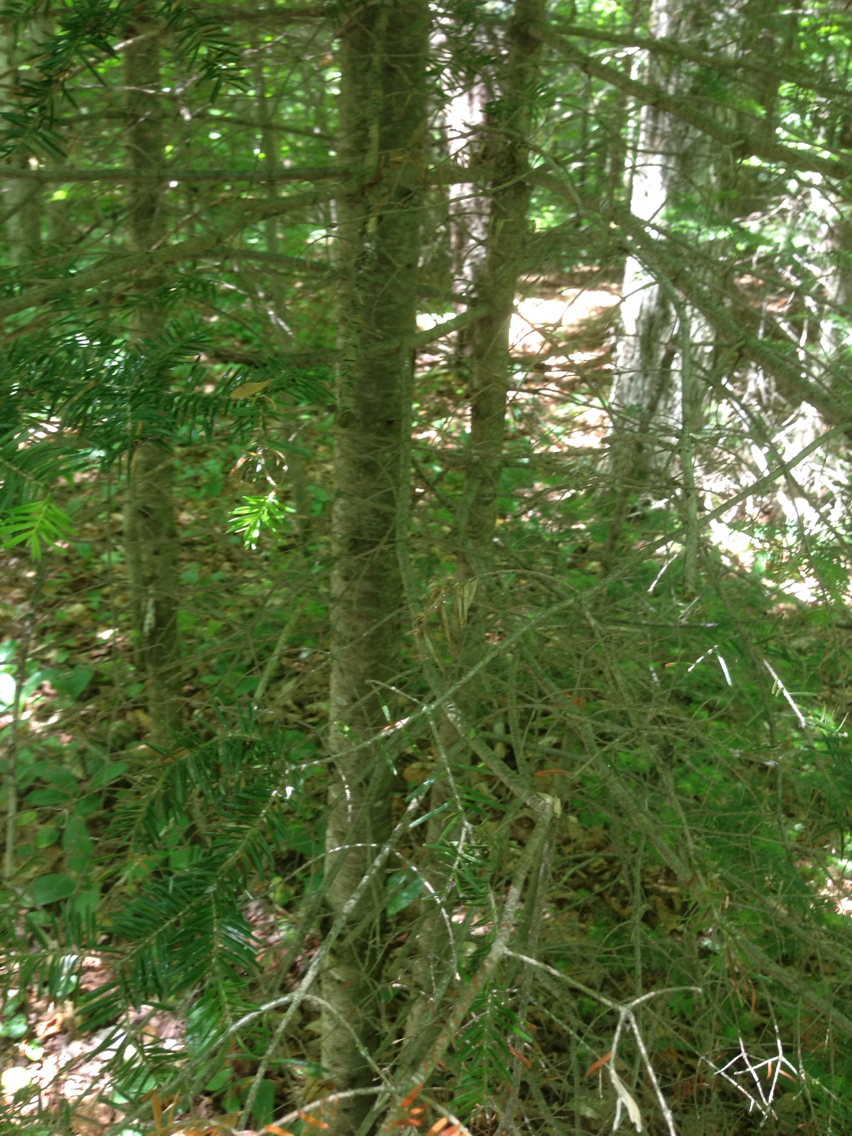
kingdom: Plantae
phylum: Tracheophyta
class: Pinopsida
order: Pinales
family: Pinaceae
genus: Abies
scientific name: Abies balsamea
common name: Balsam fir
